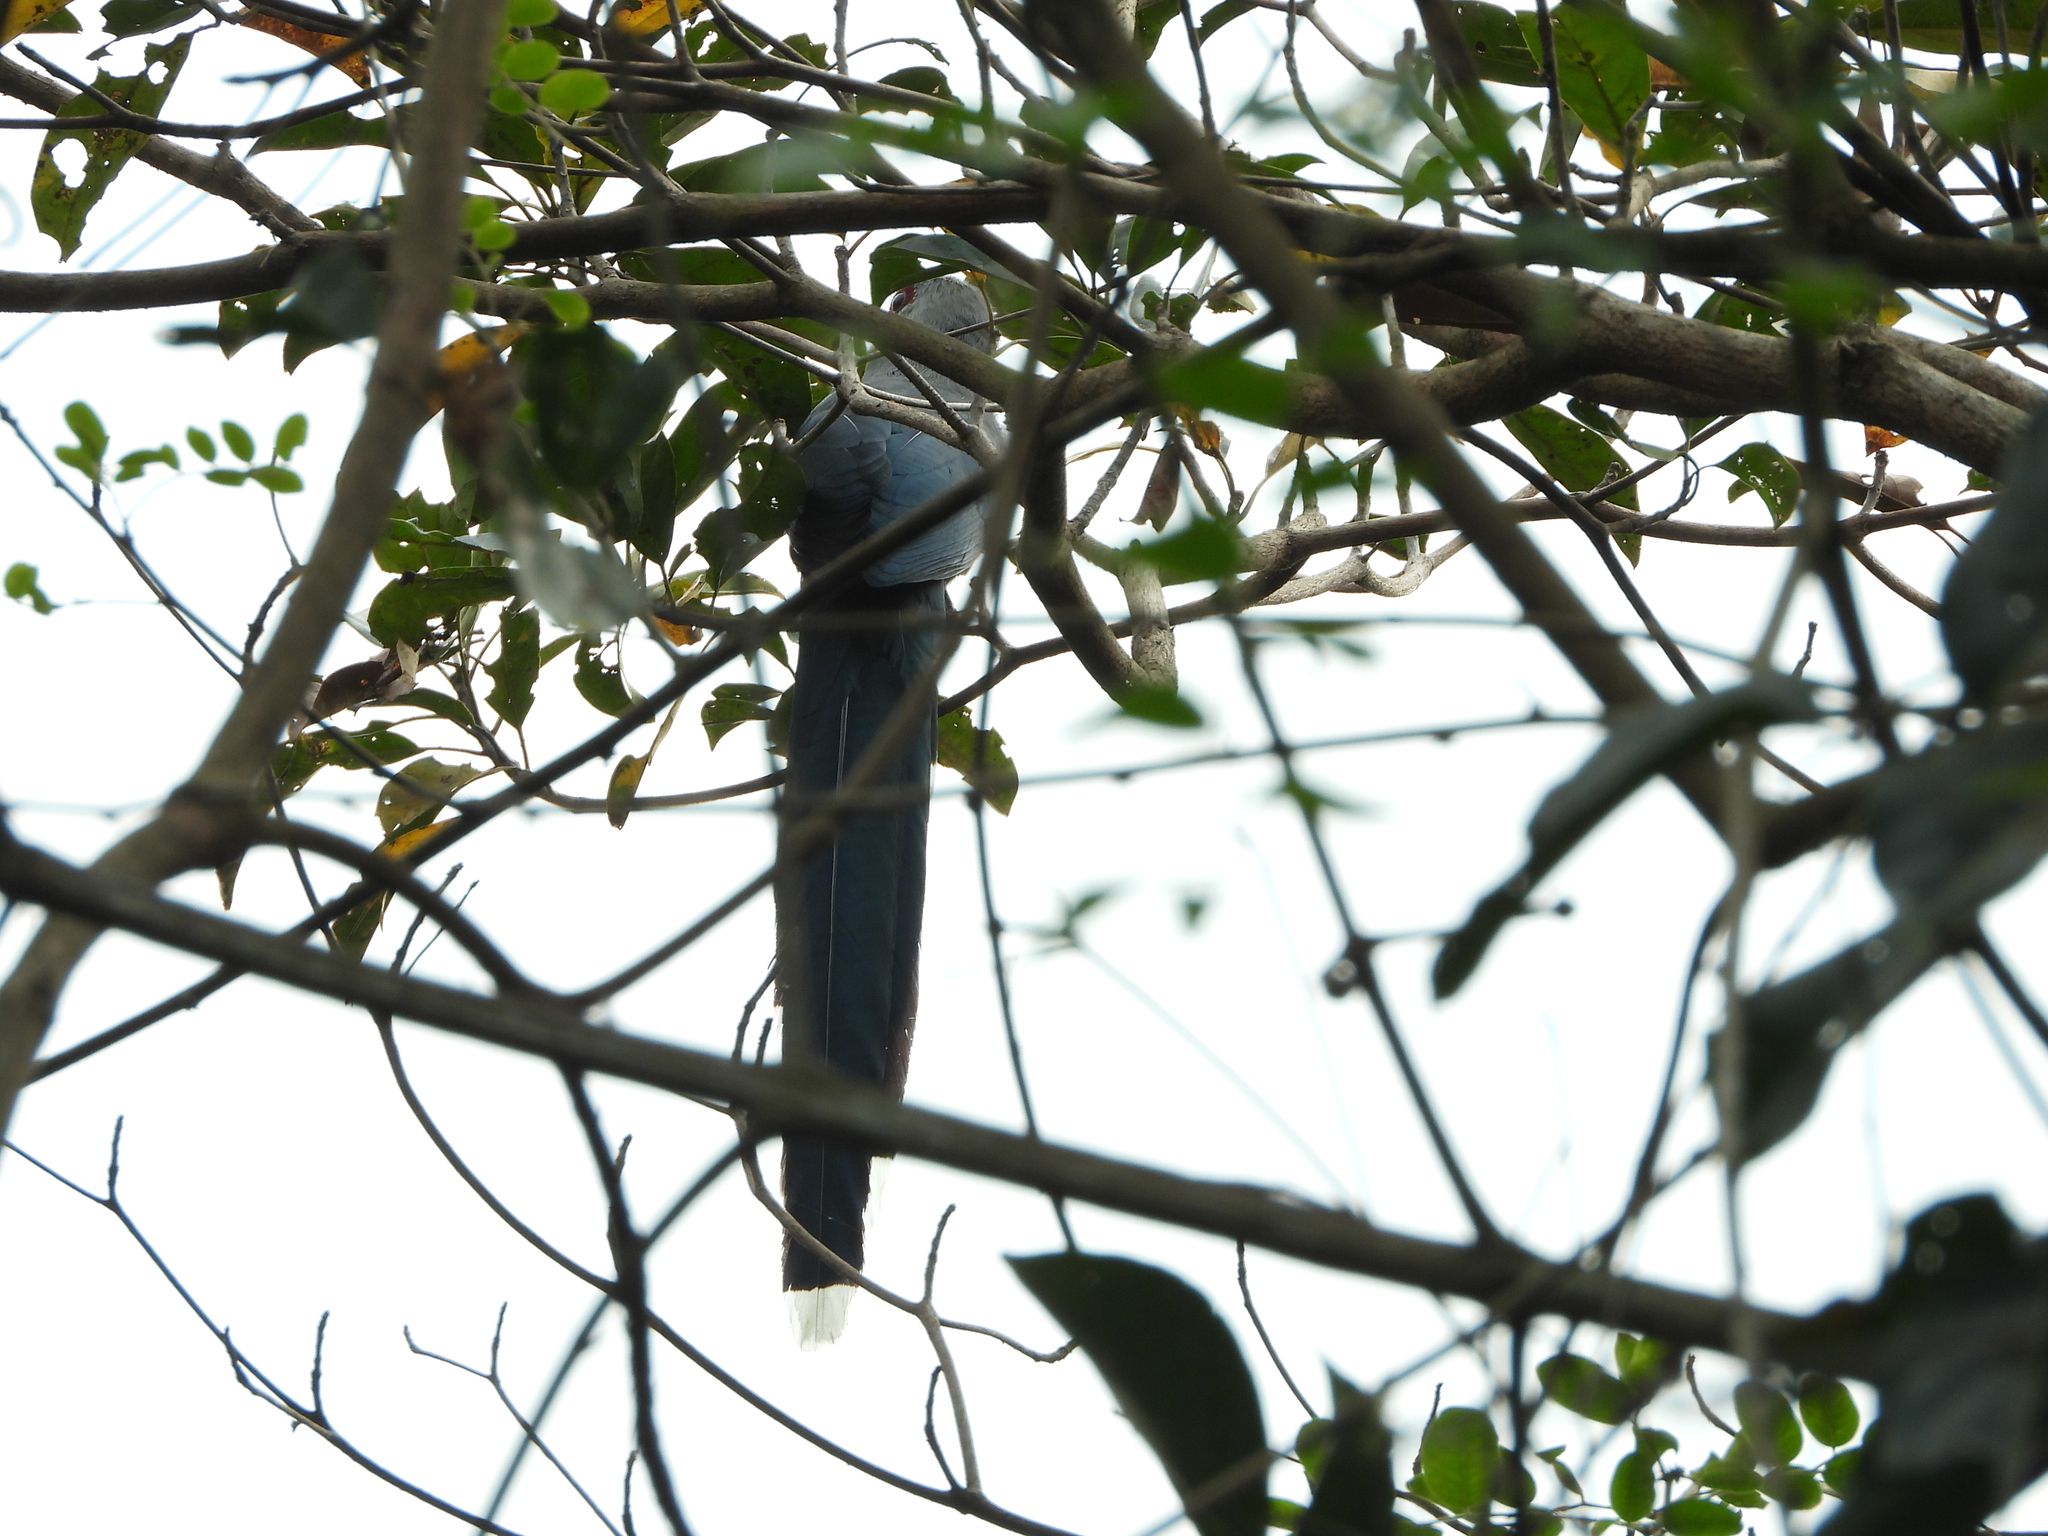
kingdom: Animalia
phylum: Chordata
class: Aves
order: Cuculiformes
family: Cuculidae
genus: Rhopodytes
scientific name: Rhopodytes tristis
